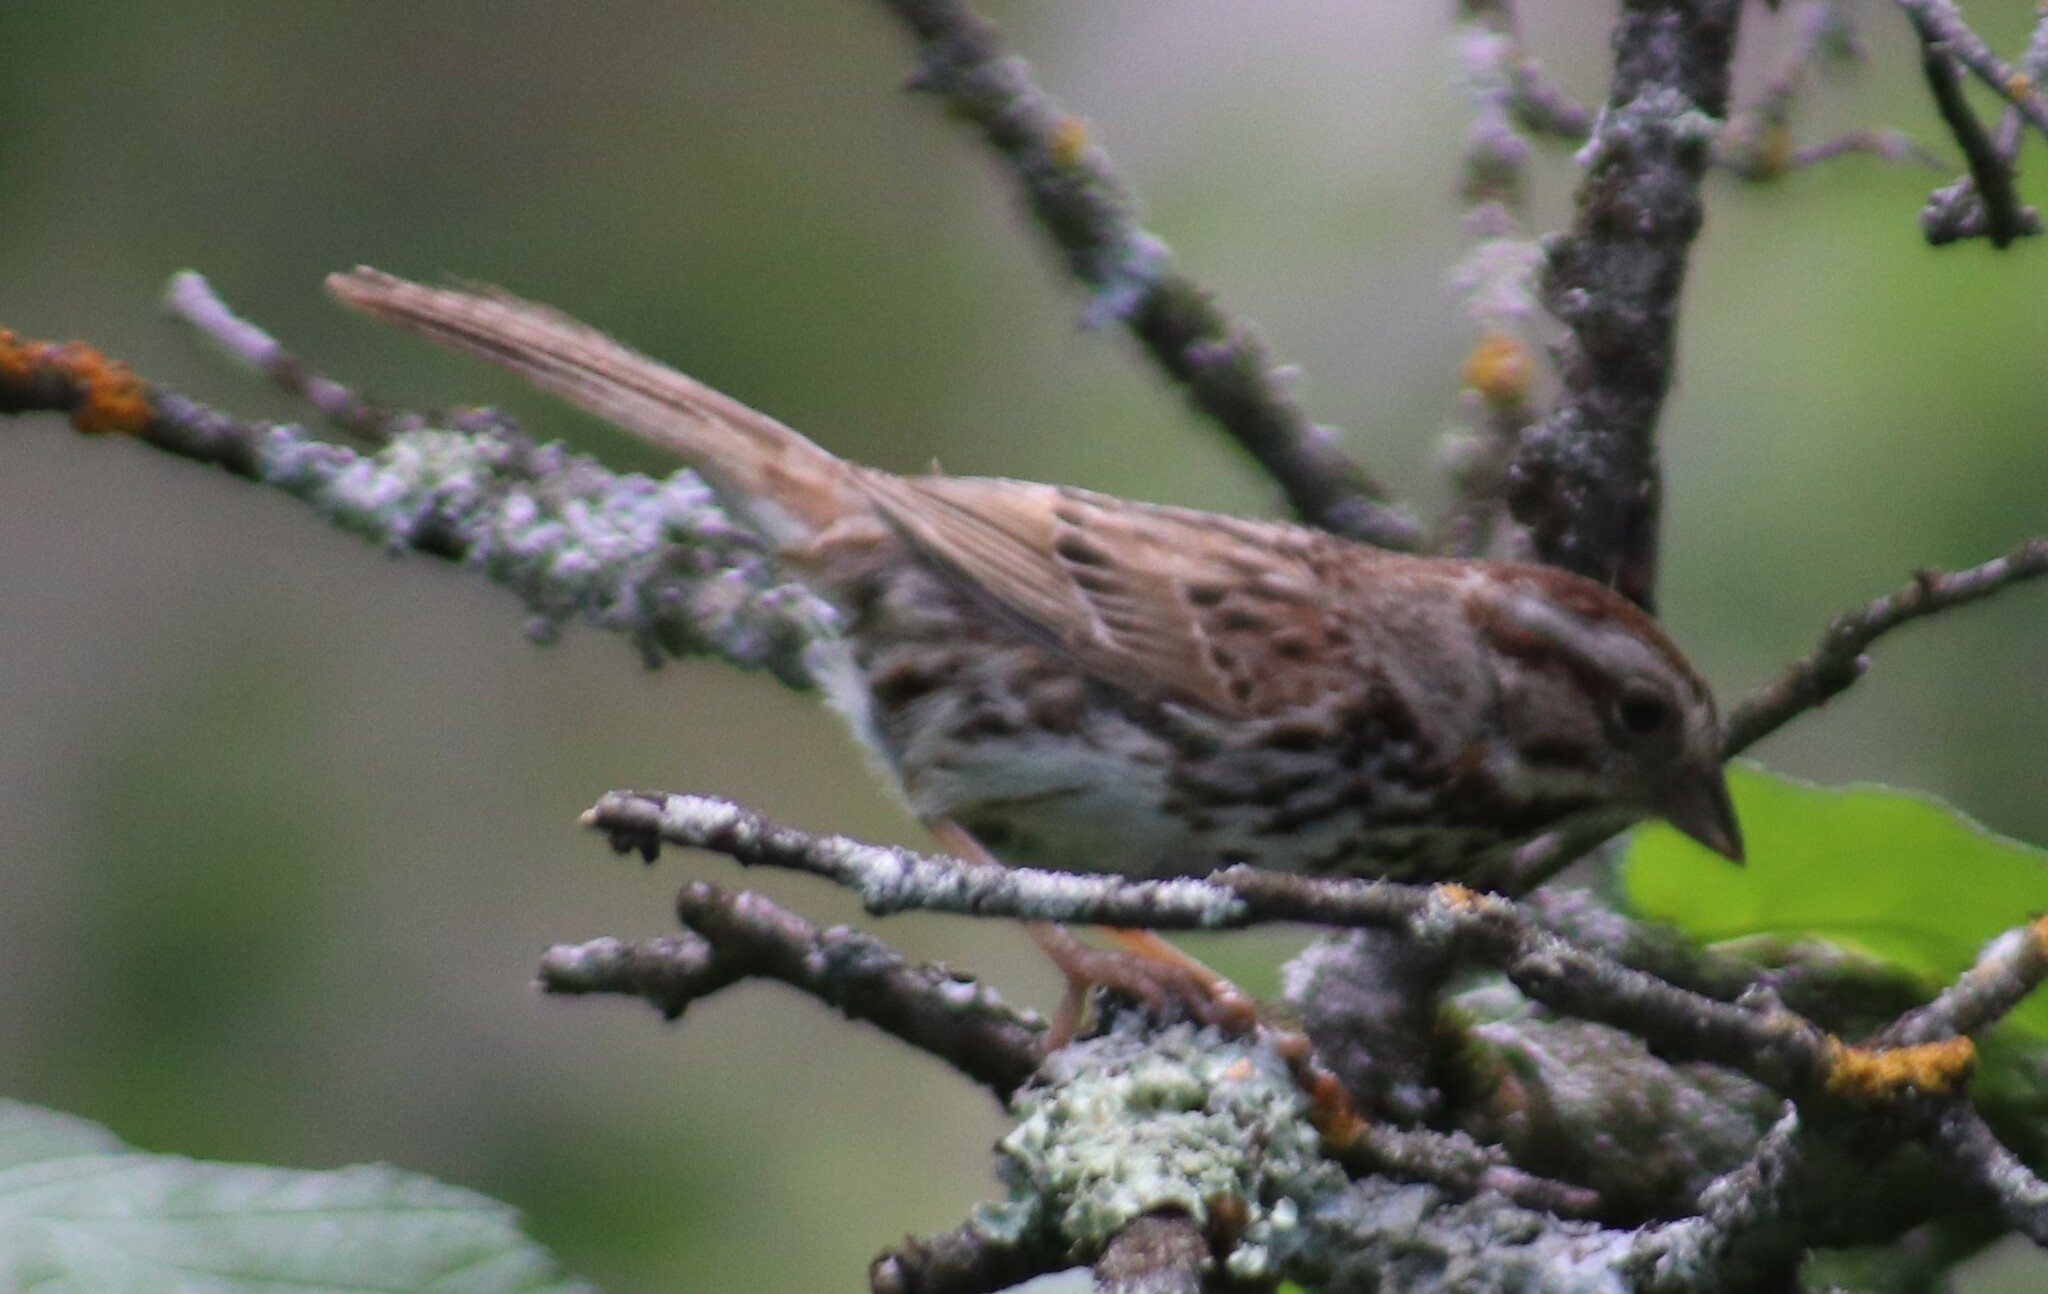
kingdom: Animalia
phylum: Chordata
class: Aves
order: Passeriformes
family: Passerellidae
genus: Melospiza
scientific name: Melospiza melodia
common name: Song sparrow
